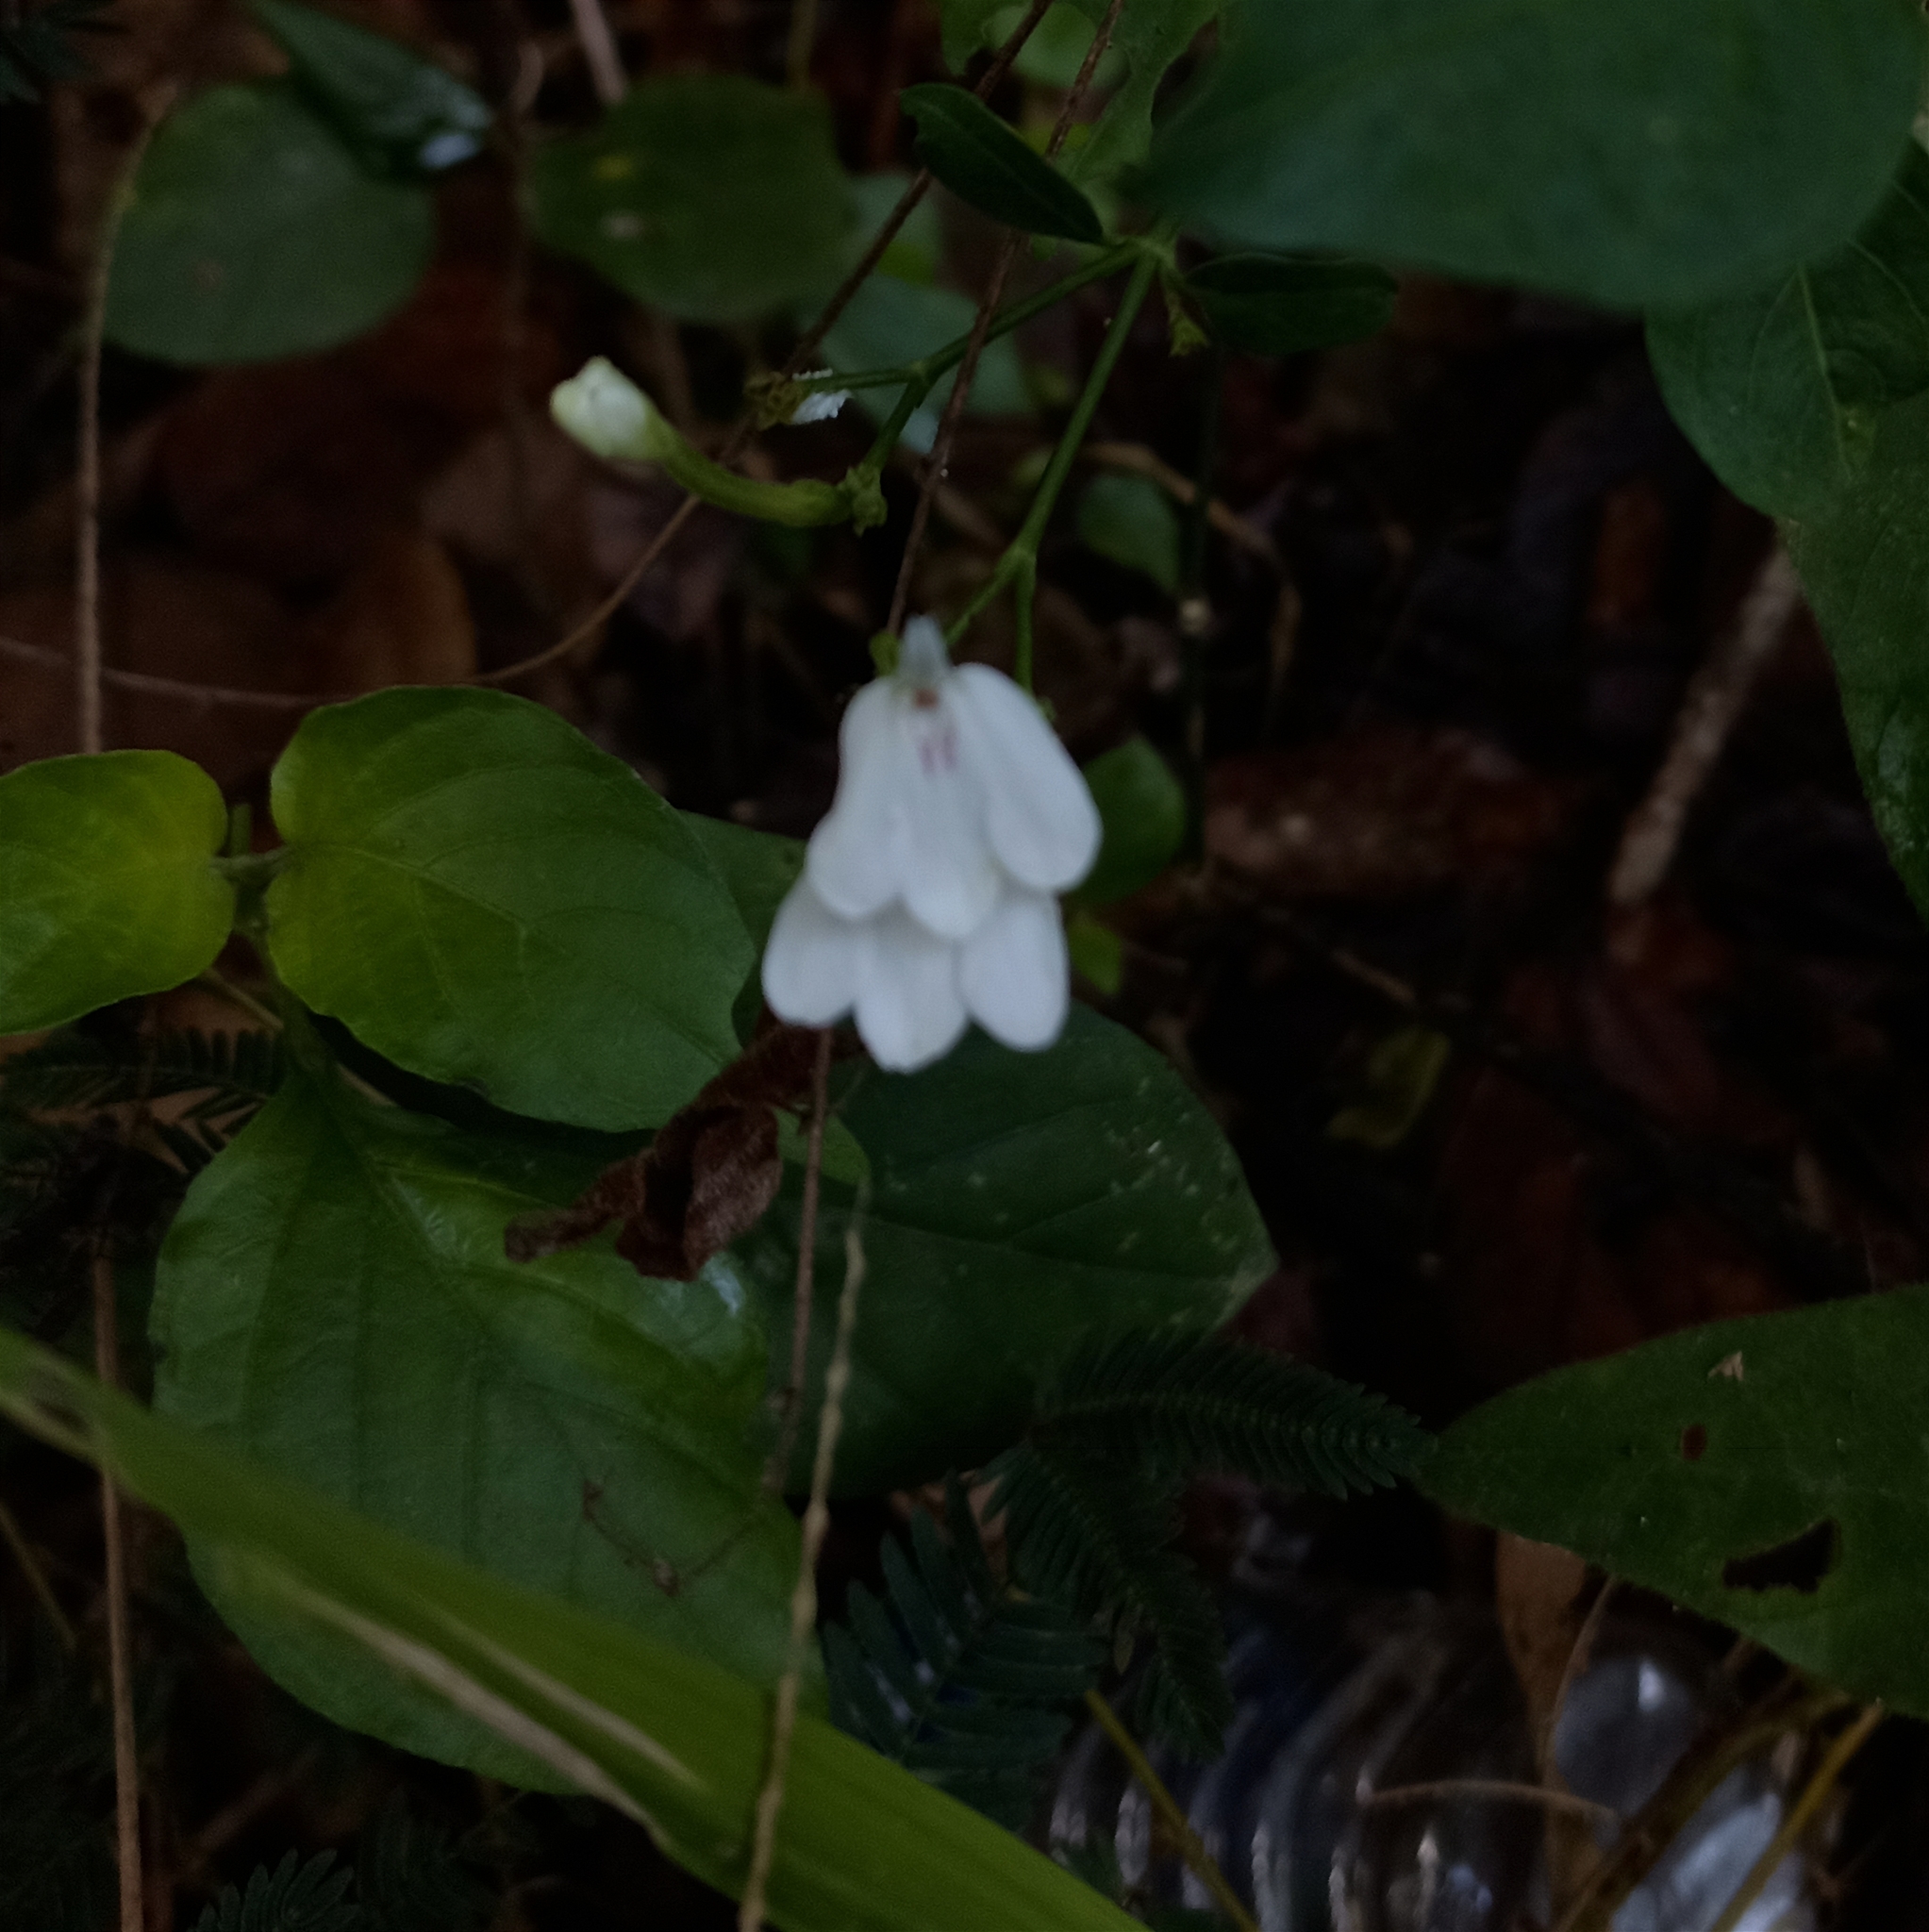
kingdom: Plantae
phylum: Tracheophyta
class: Magnoliopsida
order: Lamiales
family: Acanthaceae
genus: Rhinacanthus
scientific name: Rhinacanthus nasutus
